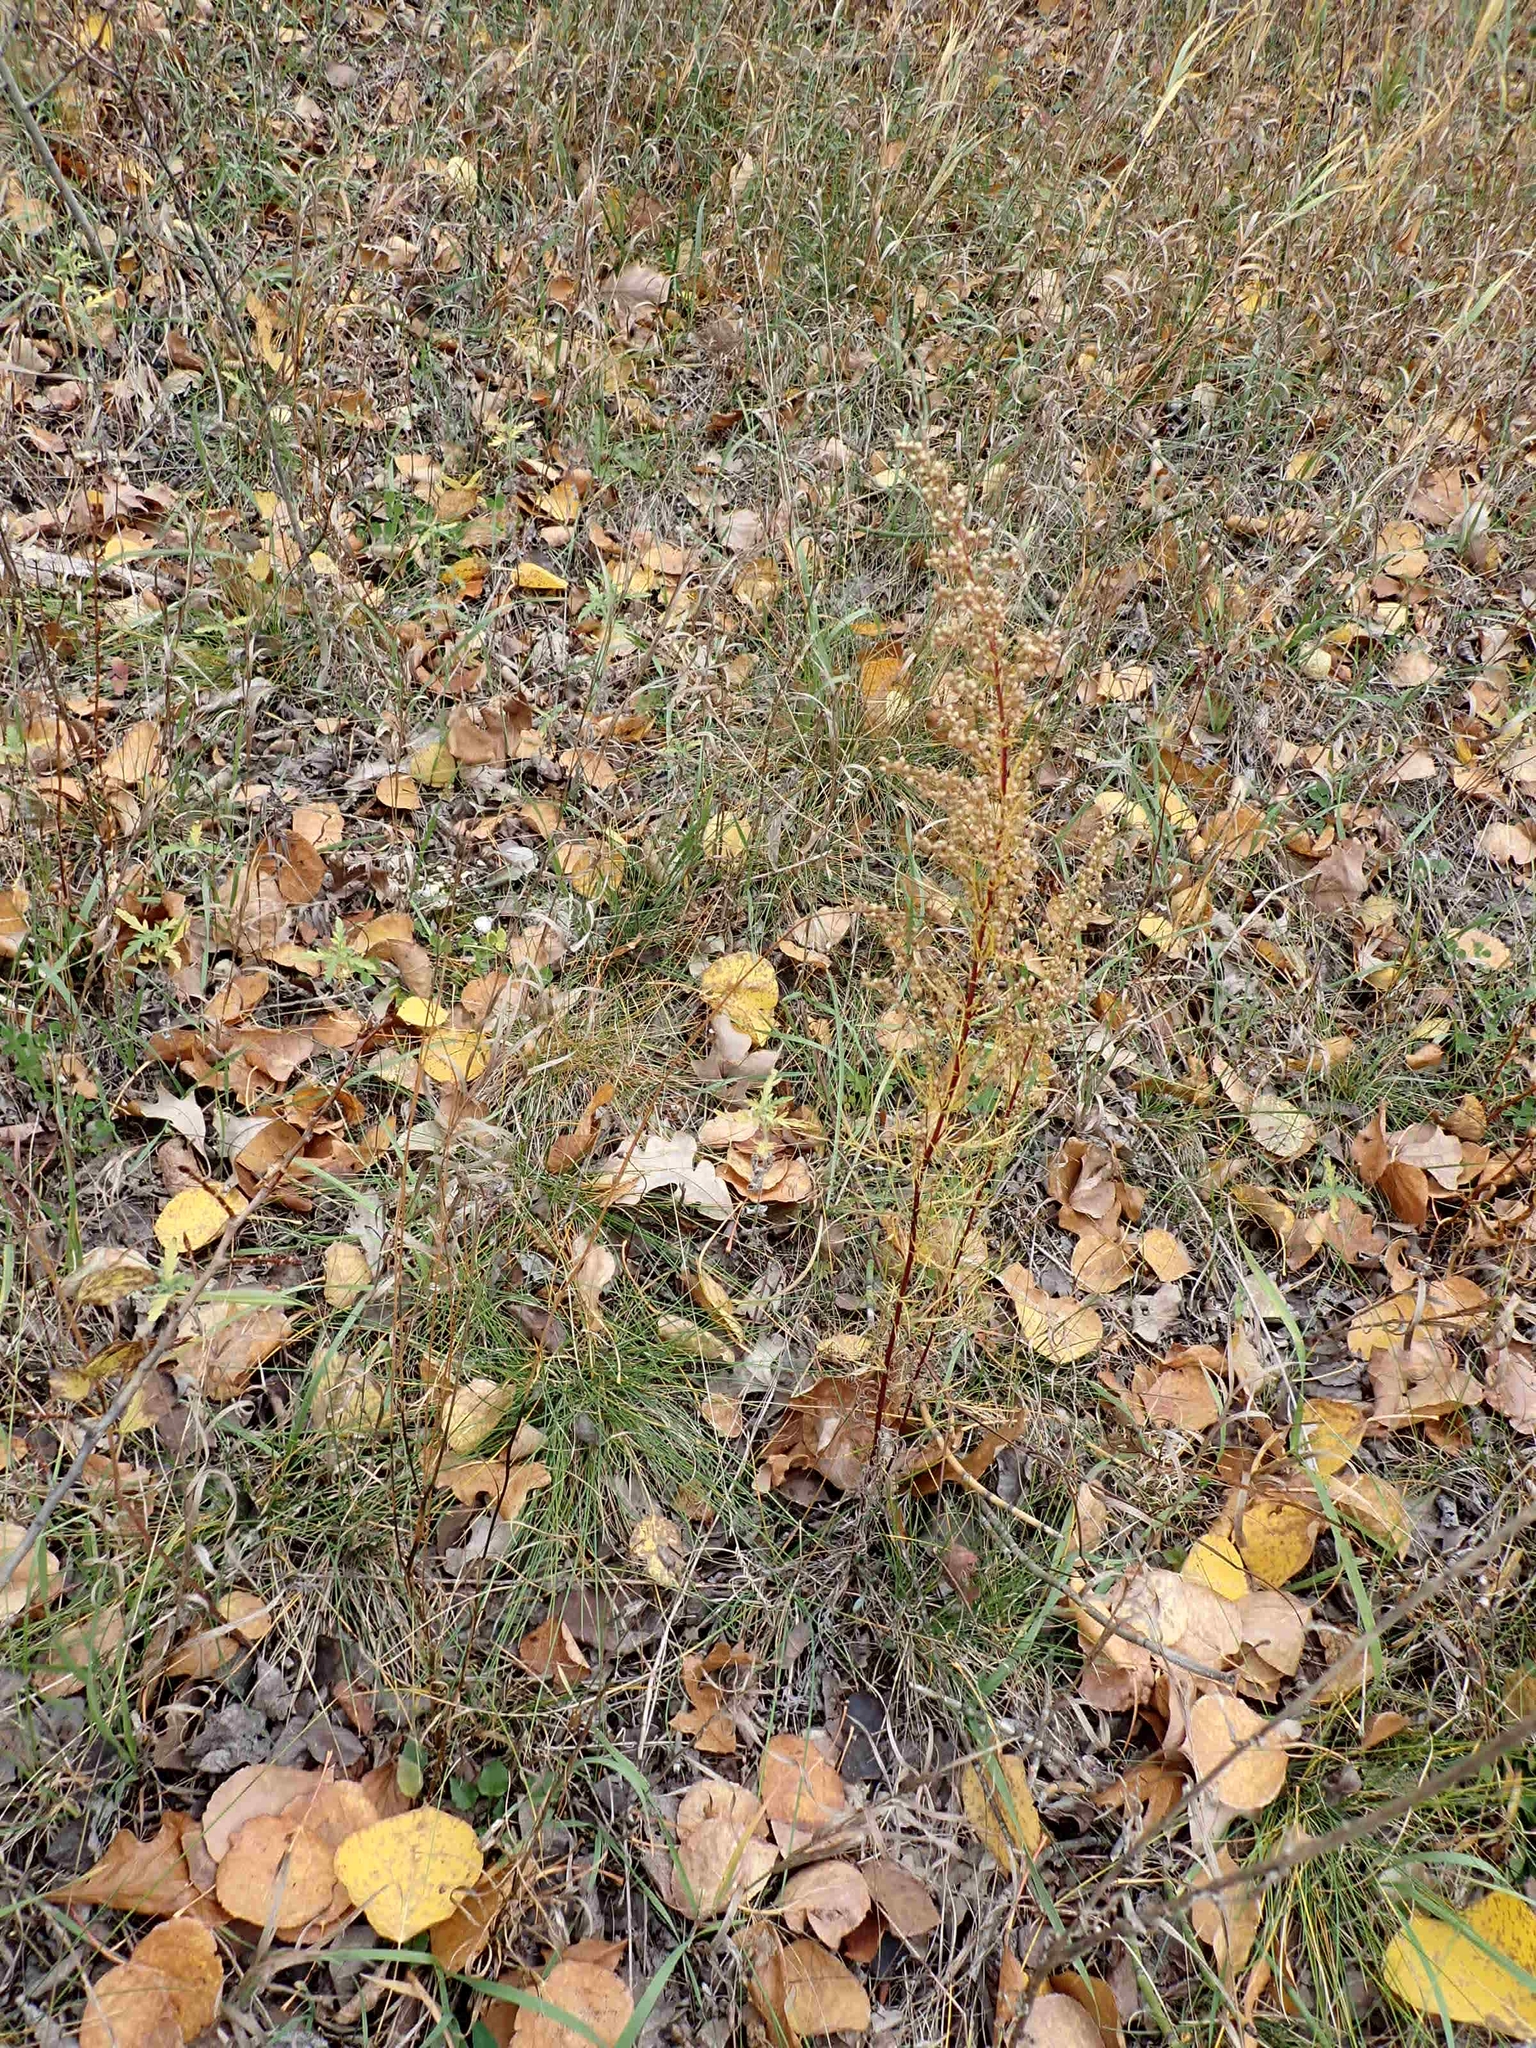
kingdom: Plantae
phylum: Tracheophyta
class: Magnoliopsida
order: Asterales
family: Asteraceae
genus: Artemisia
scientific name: Artemisia campestris
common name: Field wormwood
